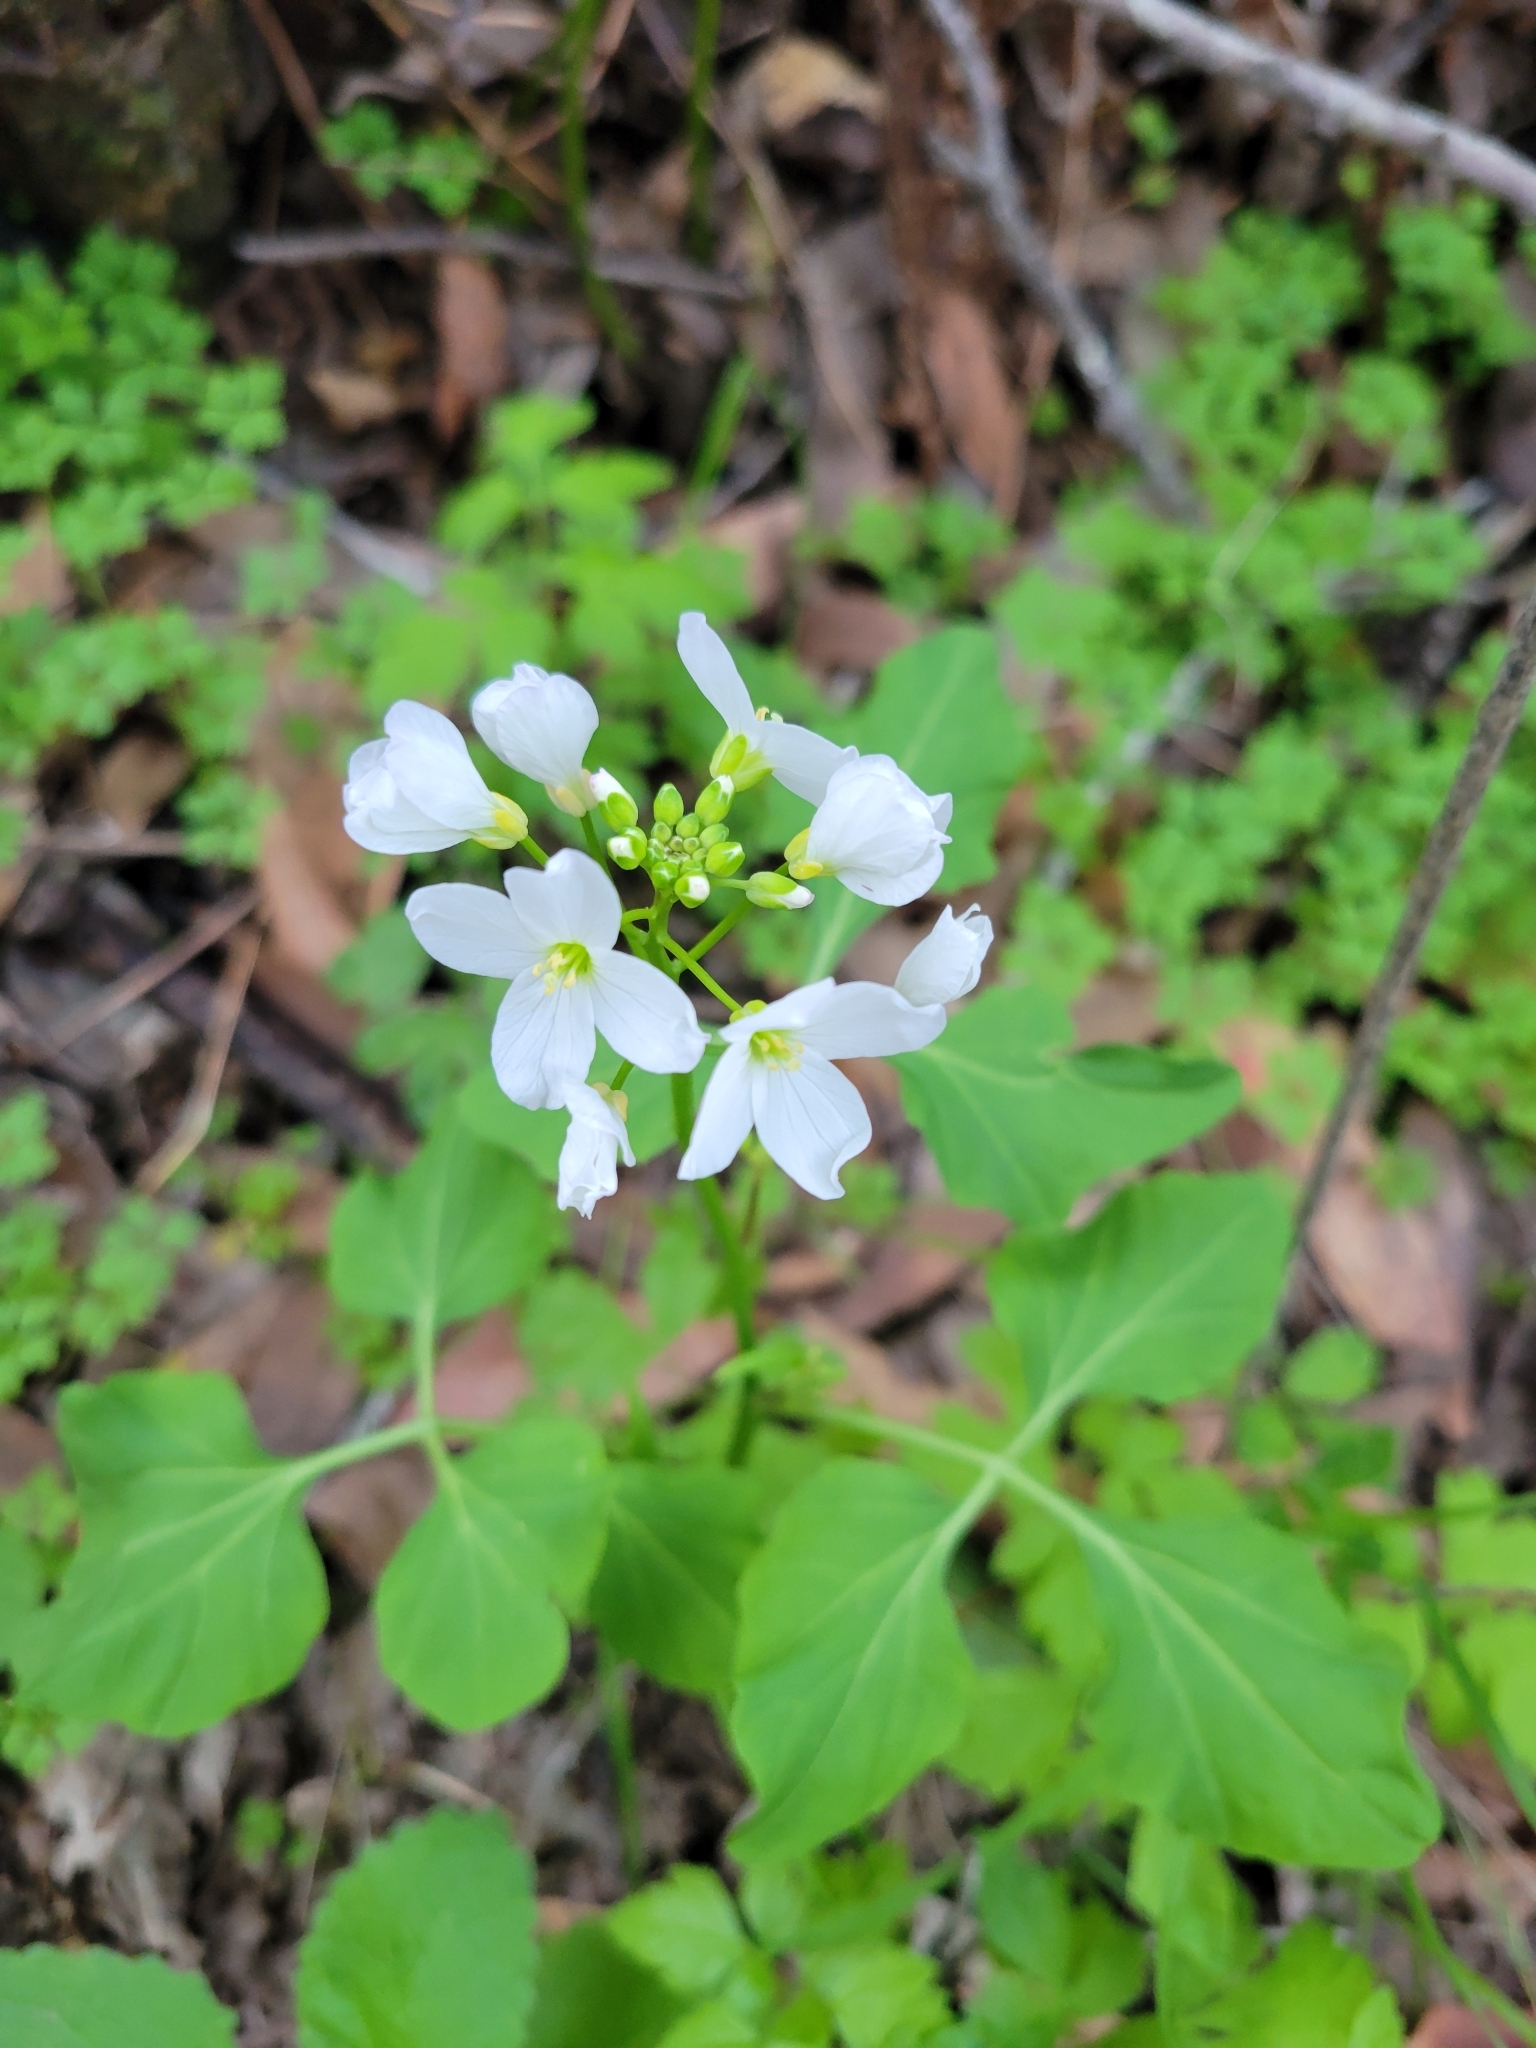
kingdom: Plantae
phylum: Tracheophyta
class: Magnoliopsida
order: Brassicales
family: Brassicaceae
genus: Cardamine
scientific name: Cardamine californica
